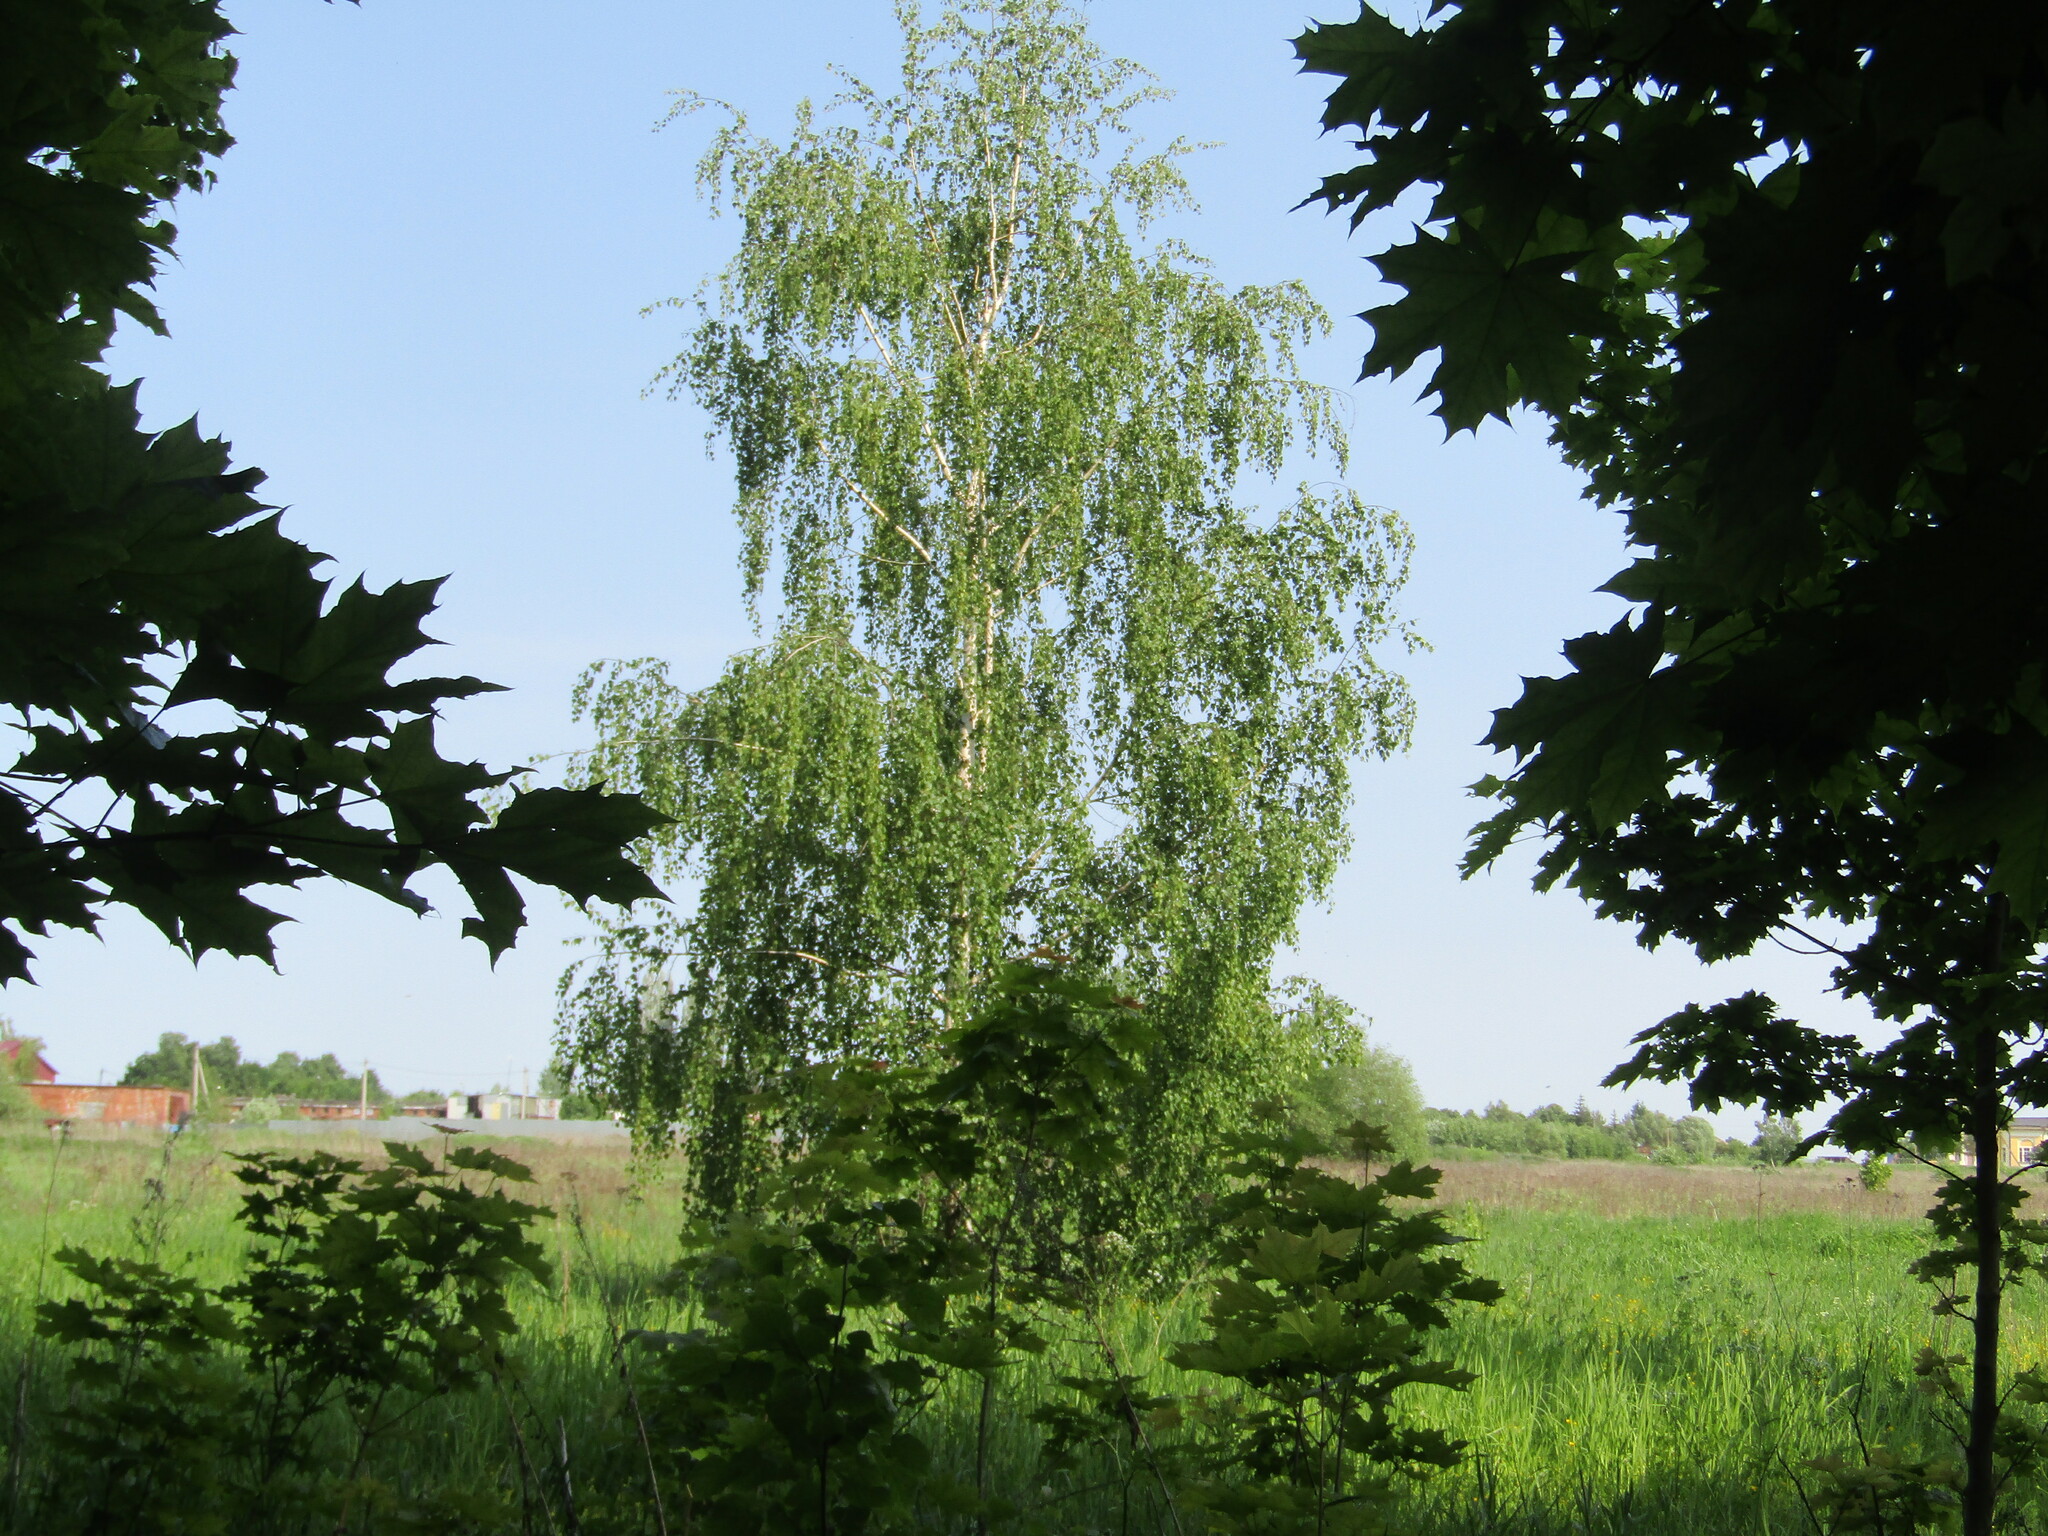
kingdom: Plantae
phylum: Tracheophyta
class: Magnoliopsida
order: Fagales
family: Betulaceae
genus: Betula
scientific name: Betula pendula
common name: Silver birch
